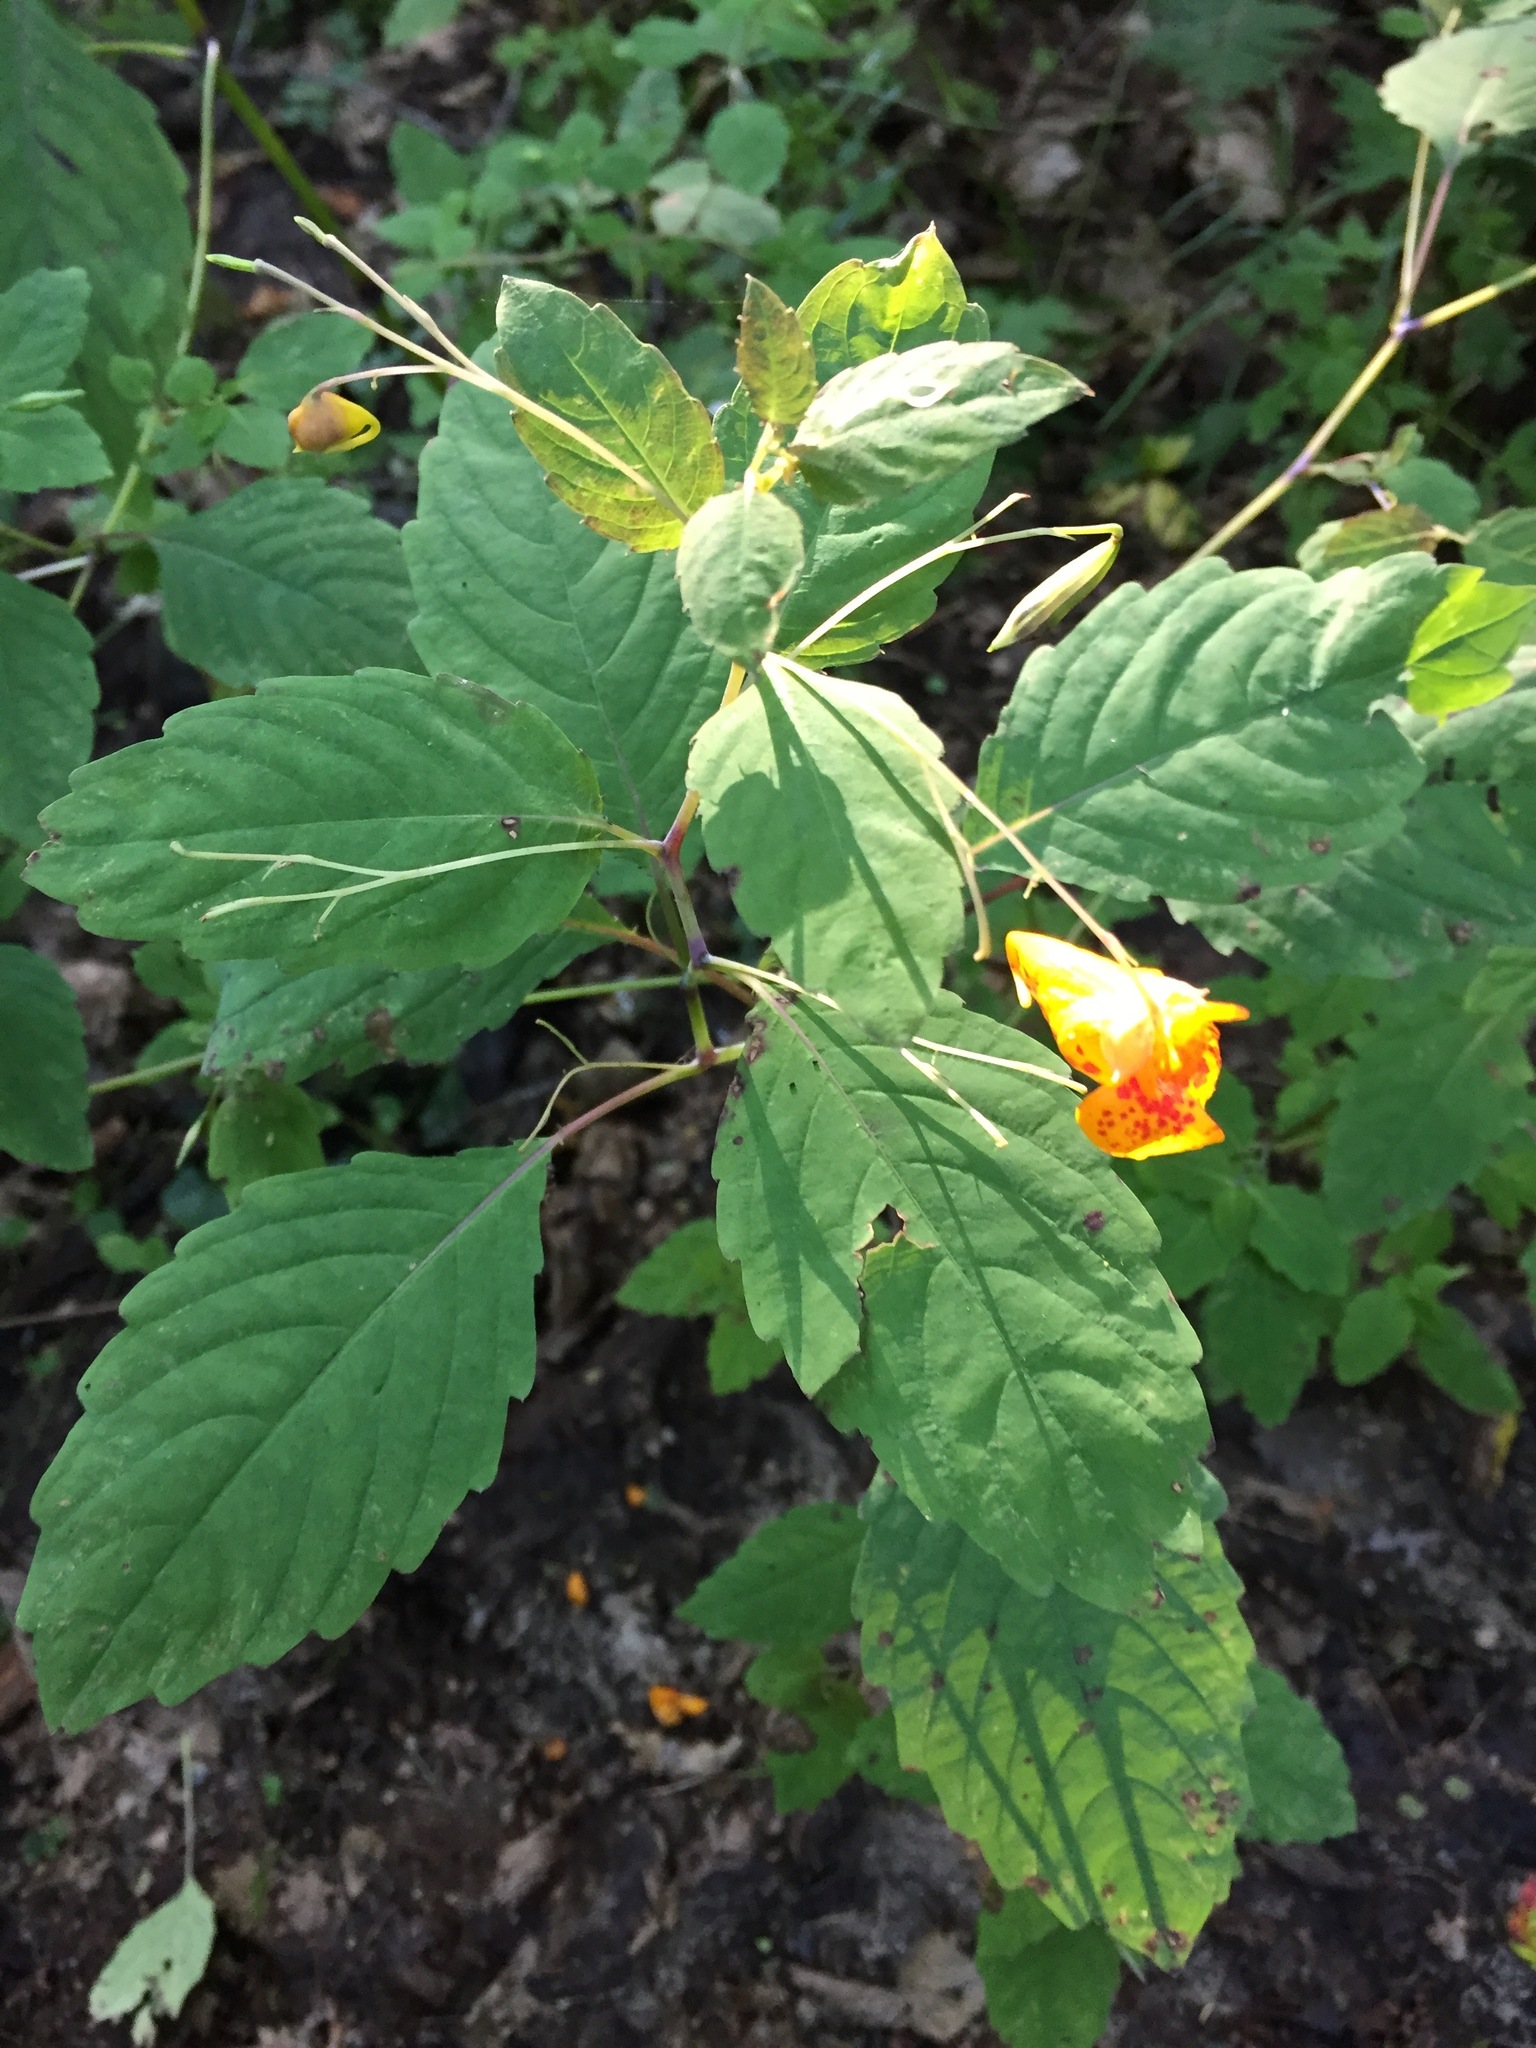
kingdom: Plantae
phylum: Tracheophyta
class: Magnoliopsida
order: Ericales
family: Balsaminaceae
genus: Impatiens
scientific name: Impatiens capensis
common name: Orange balsam
